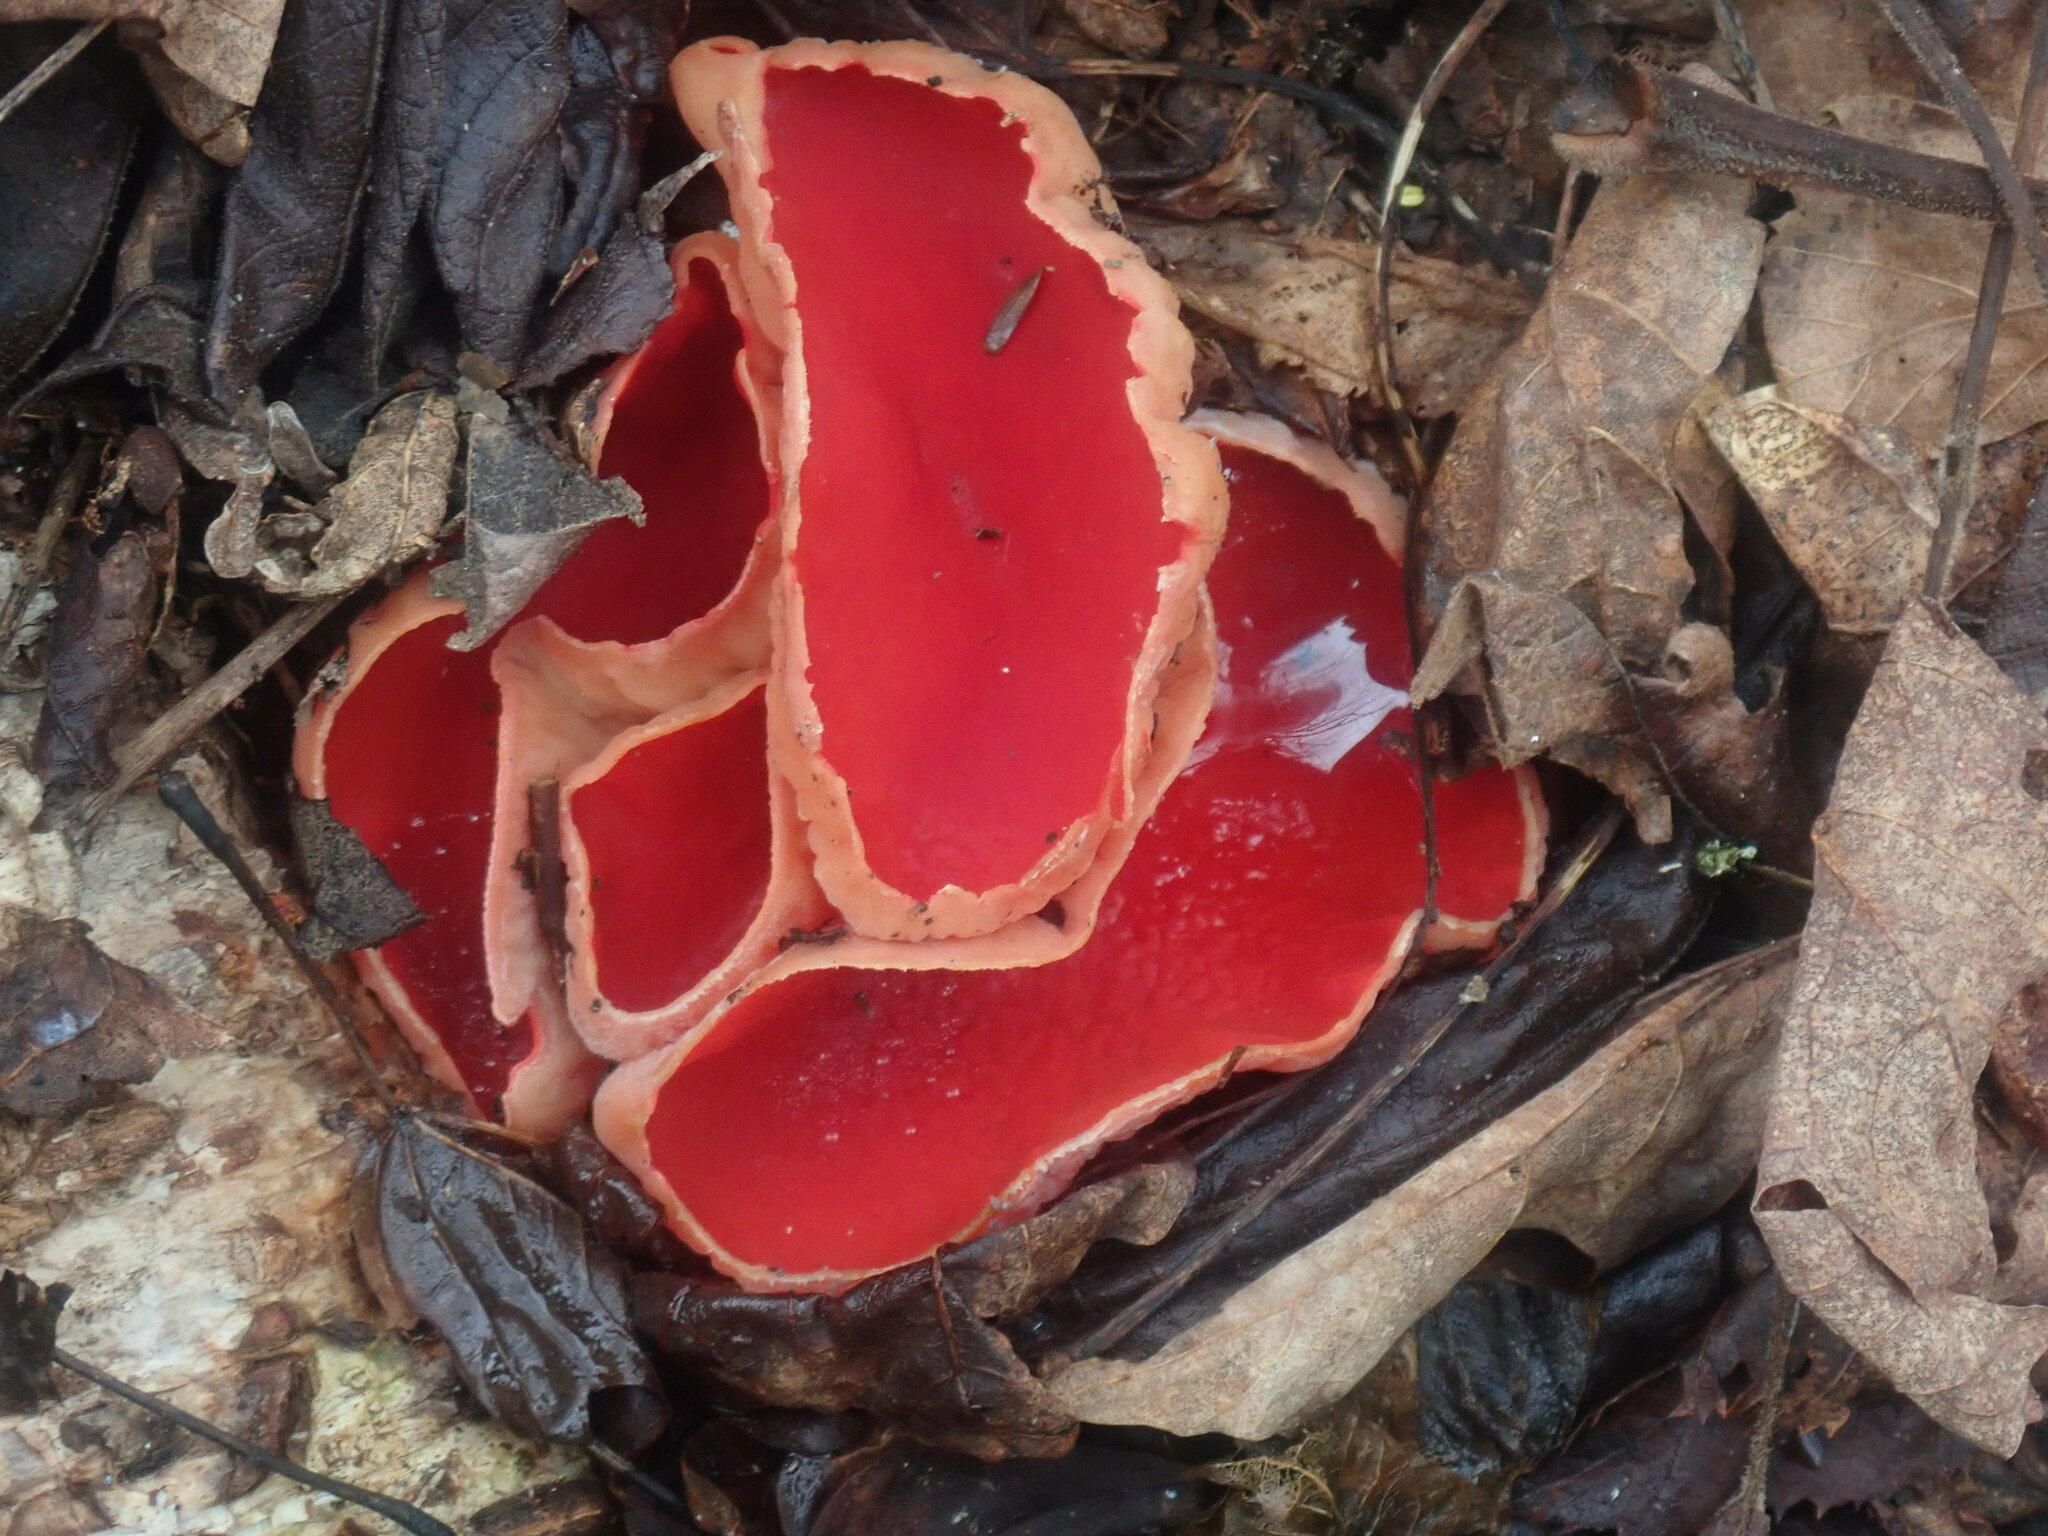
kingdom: Fungi
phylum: Ascomycota
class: Pezizomycetes
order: Pezizales
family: Sarcoscyphaceae
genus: Sarcoscypha
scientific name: Sarcoscypha
